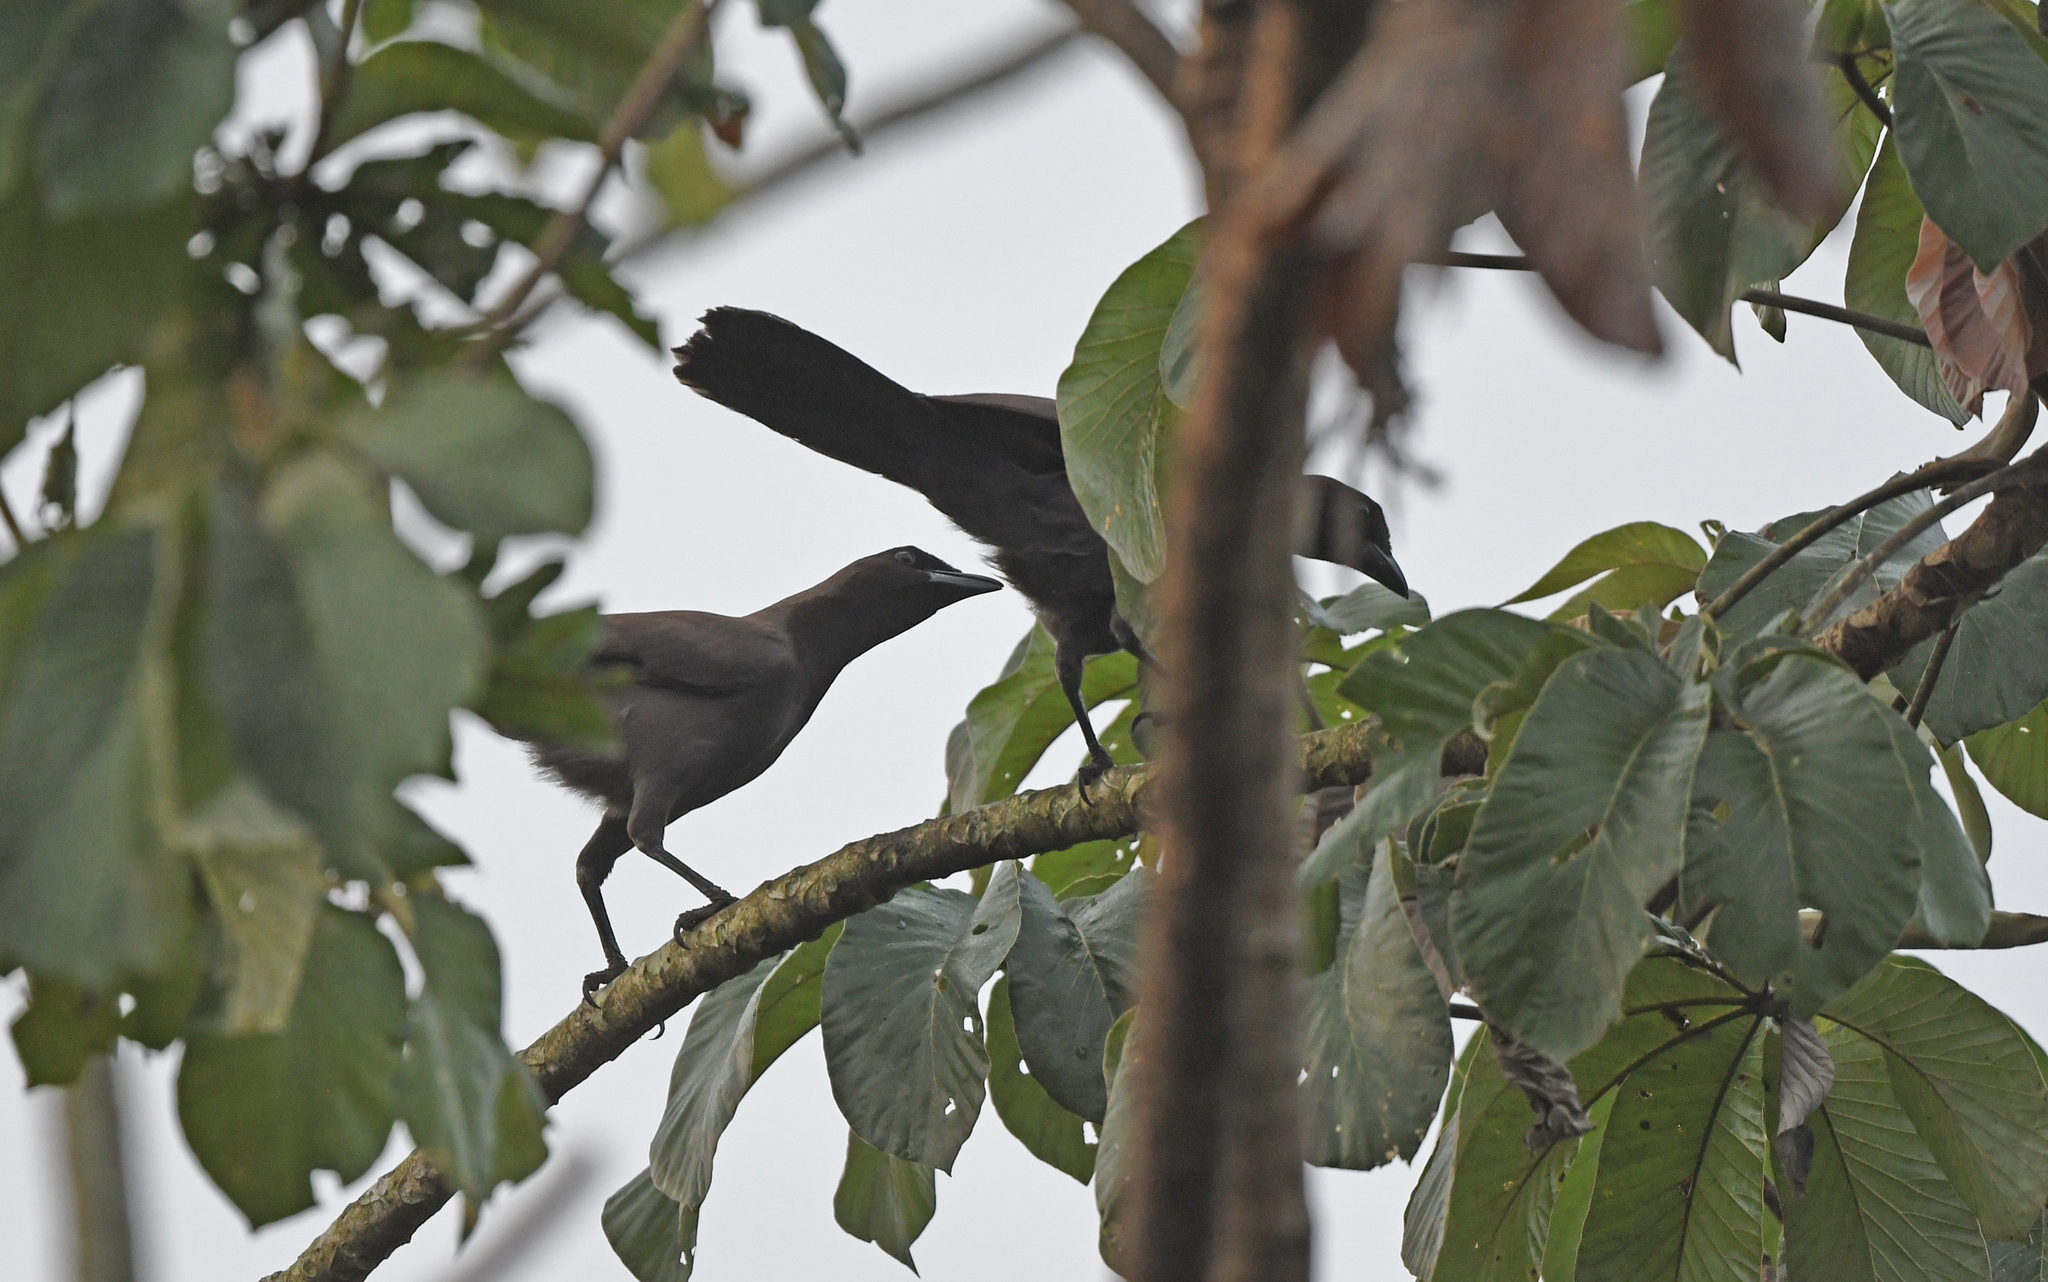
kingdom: Animalia
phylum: Chordata
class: Aves
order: Passeriformes
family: Corvidae
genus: Cyanocorax
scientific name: Cyanocorax cyanomelas
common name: Purplish jay
